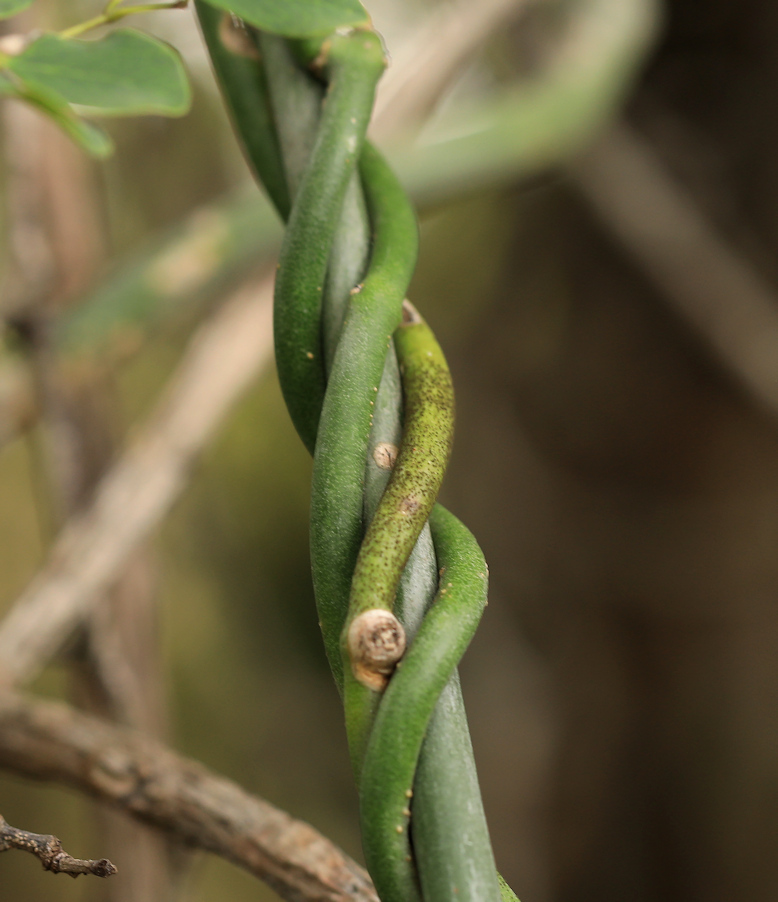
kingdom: Plantae
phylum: Tracheophyta
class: Magnoliopsida
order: Asterales
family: Asteraceae
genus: Curio
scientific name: Curio avasimontanus
